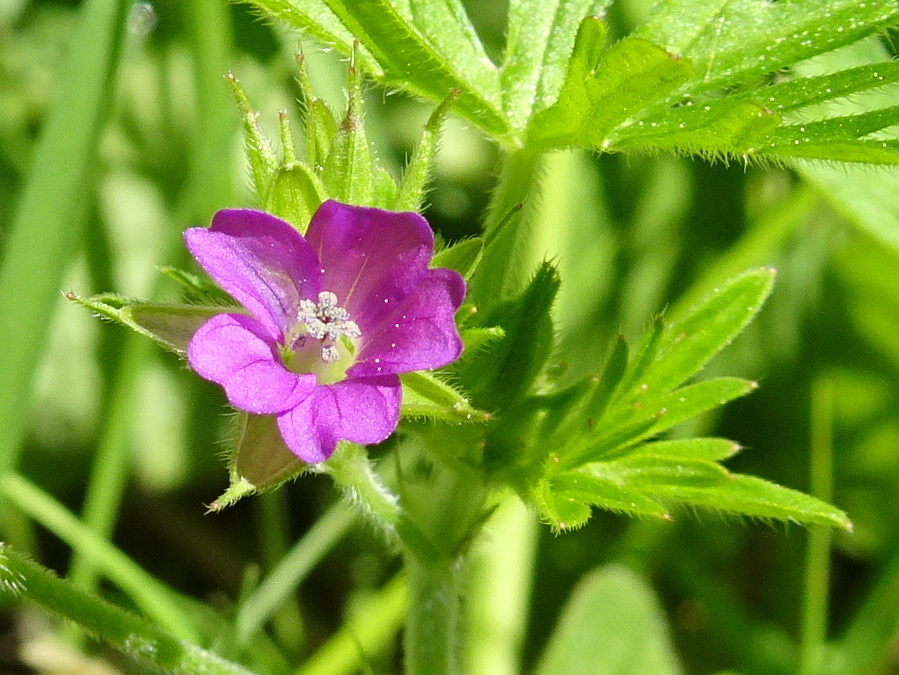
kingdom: Plantae
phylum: Tracheophyta
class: Magnoliopsida
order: Geraniales
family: Geraniaceae
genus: Geranium
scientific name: Geranium dissectum
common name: Cut-leaved crane's-bill
